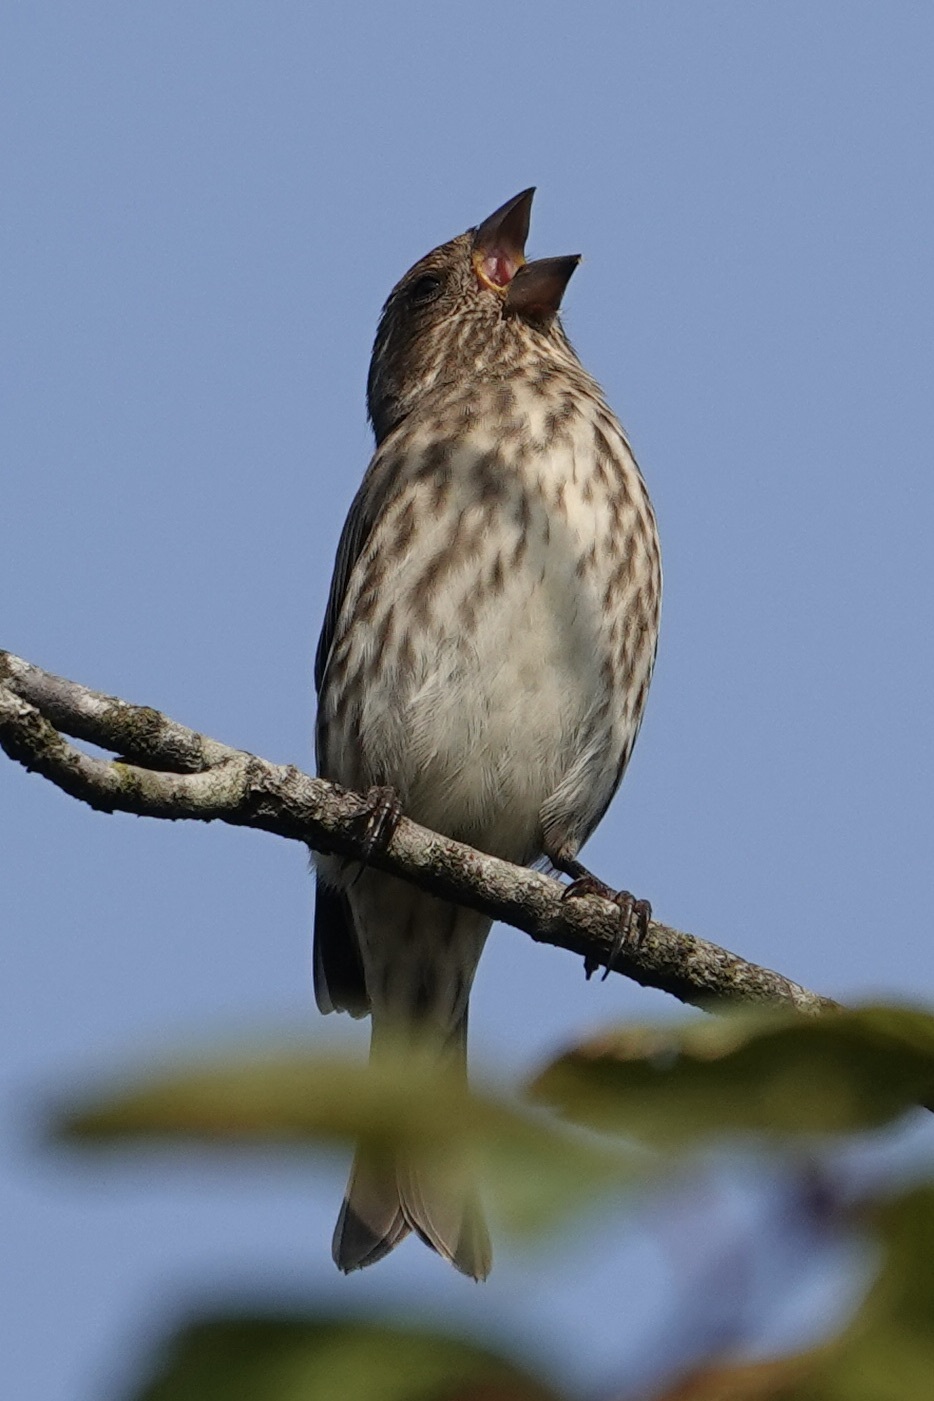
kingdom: Animalia
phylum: Chordata
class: Aves
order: Passeriformes
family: Fringillidae
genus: Haemorhous
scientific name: Haemorhous purpureus
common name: Purple finch
